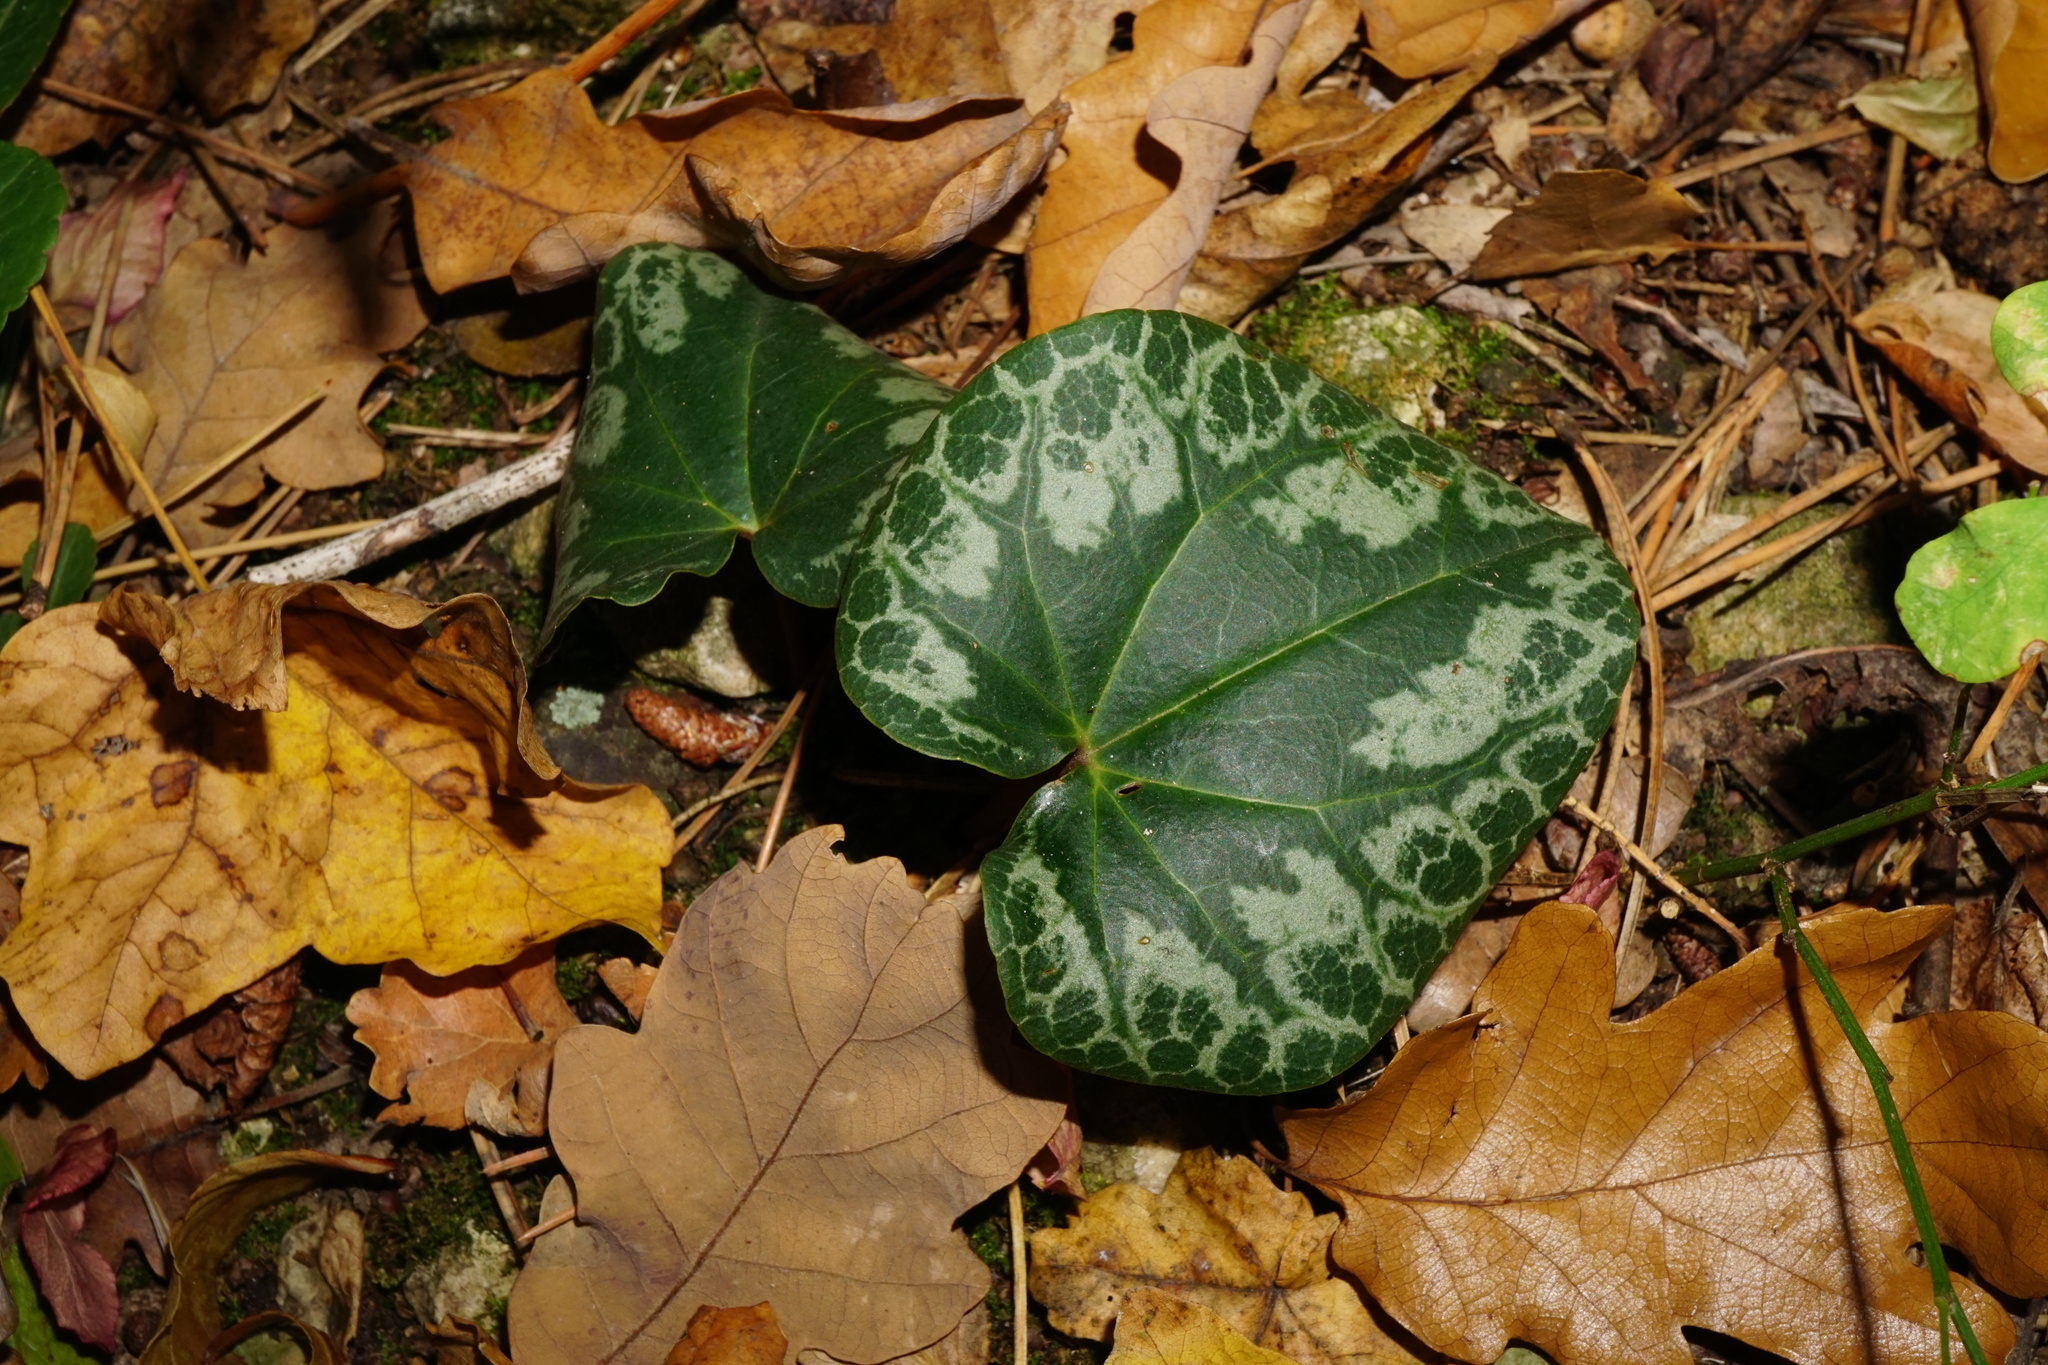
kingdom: Plantae
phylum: Tracheophyta
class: Magnoliopsida
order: Ericales
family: Primulaceae
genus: Cyclamen
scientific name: Cyclamen purpurascens
